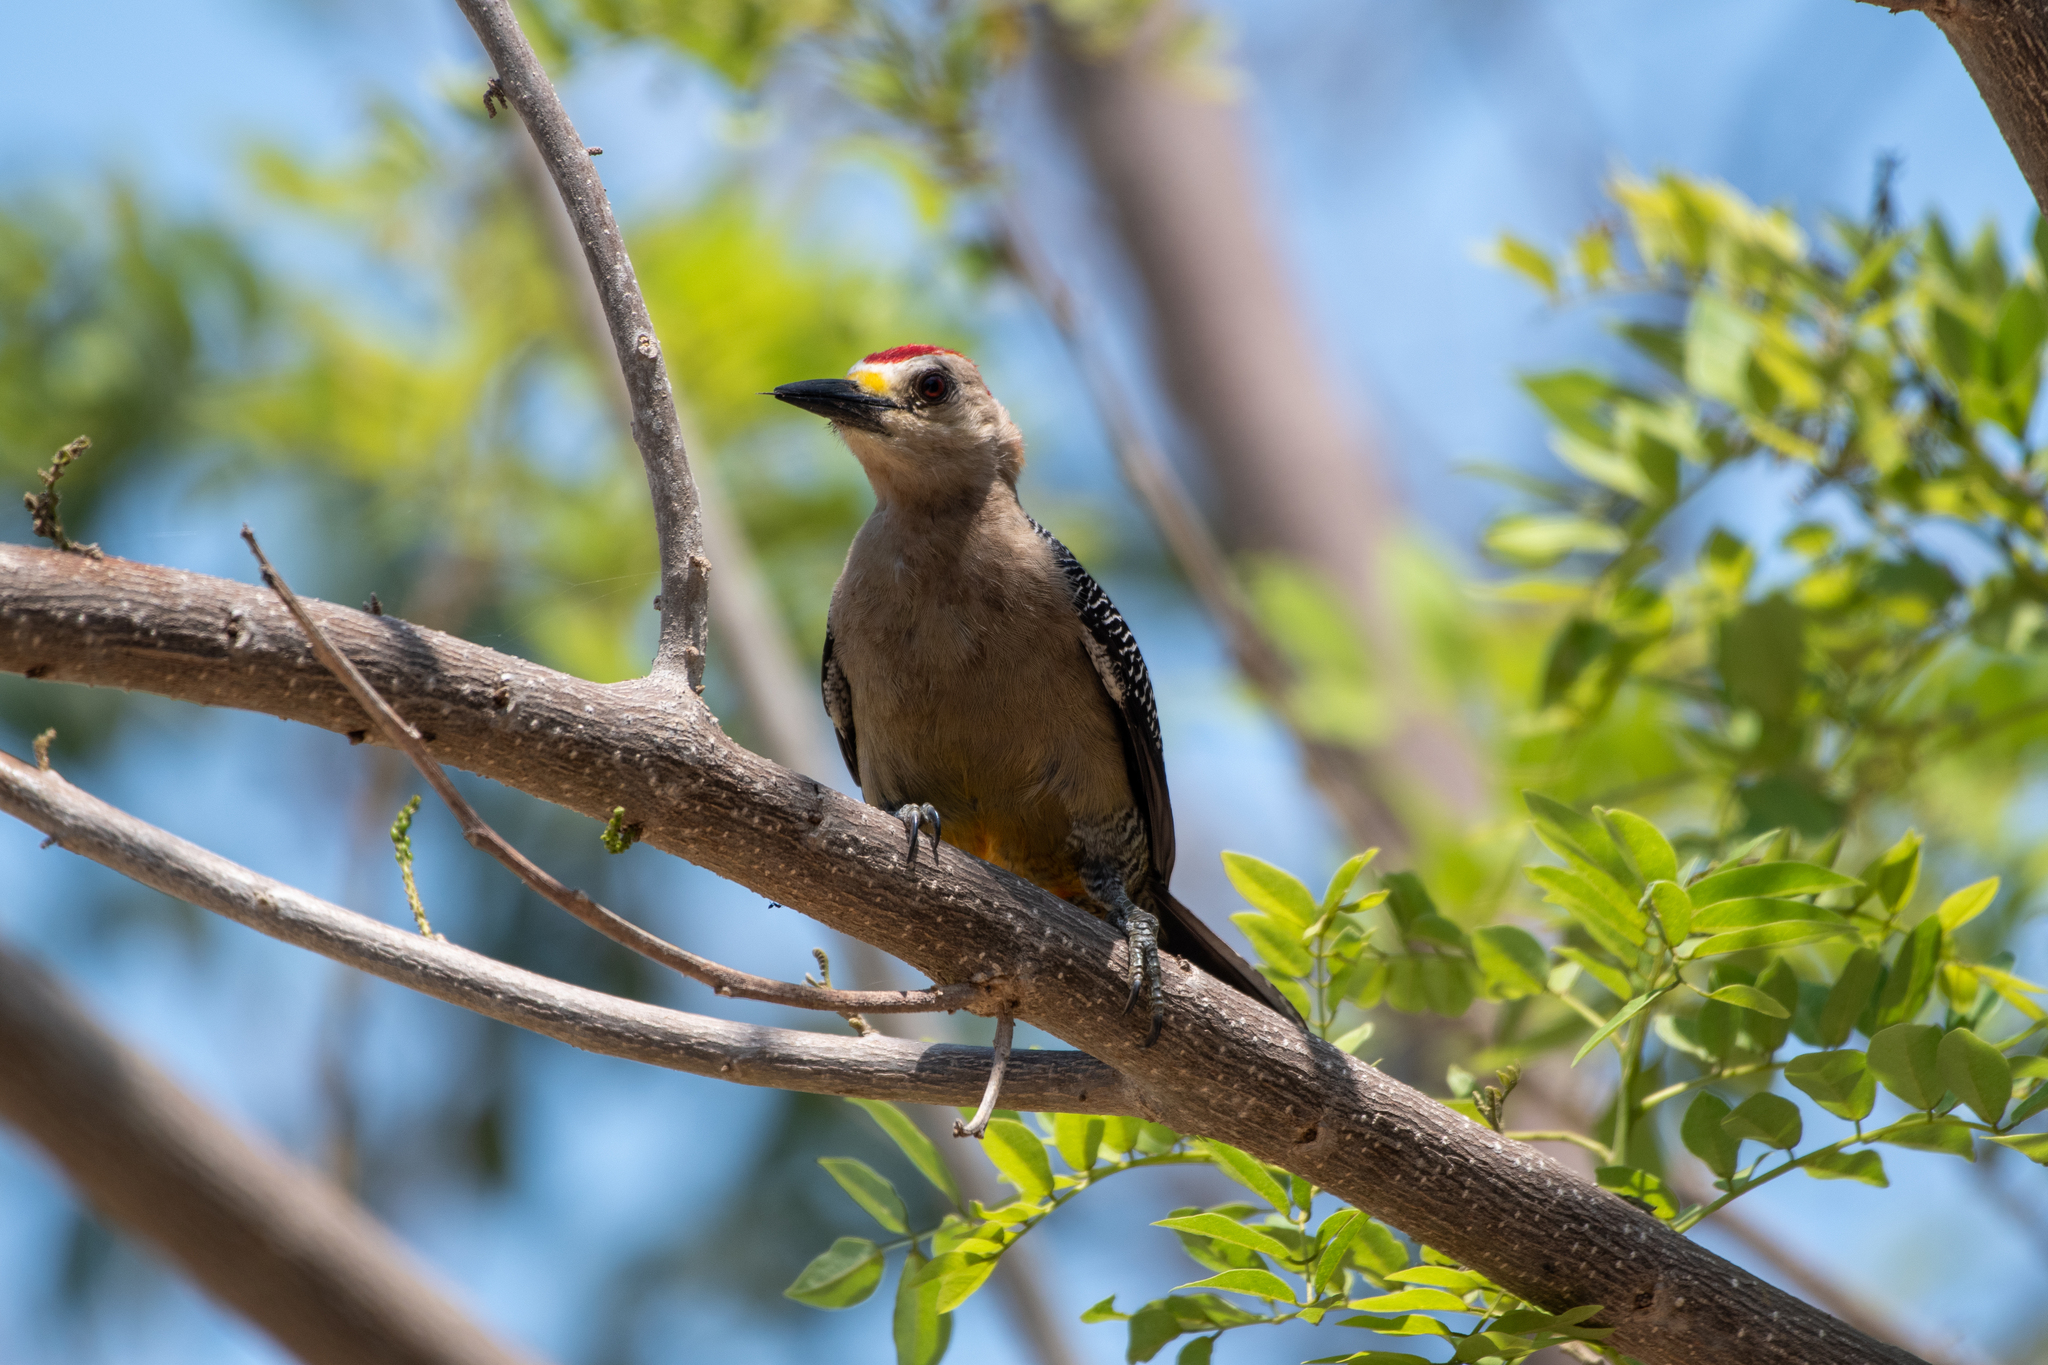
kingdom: Animalia
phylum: Chordata
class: Aves
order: Piciformes
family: Picidae
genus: Melanerpes
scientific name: Melanerpes santacruzi
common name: Velasquez's woodpecker
